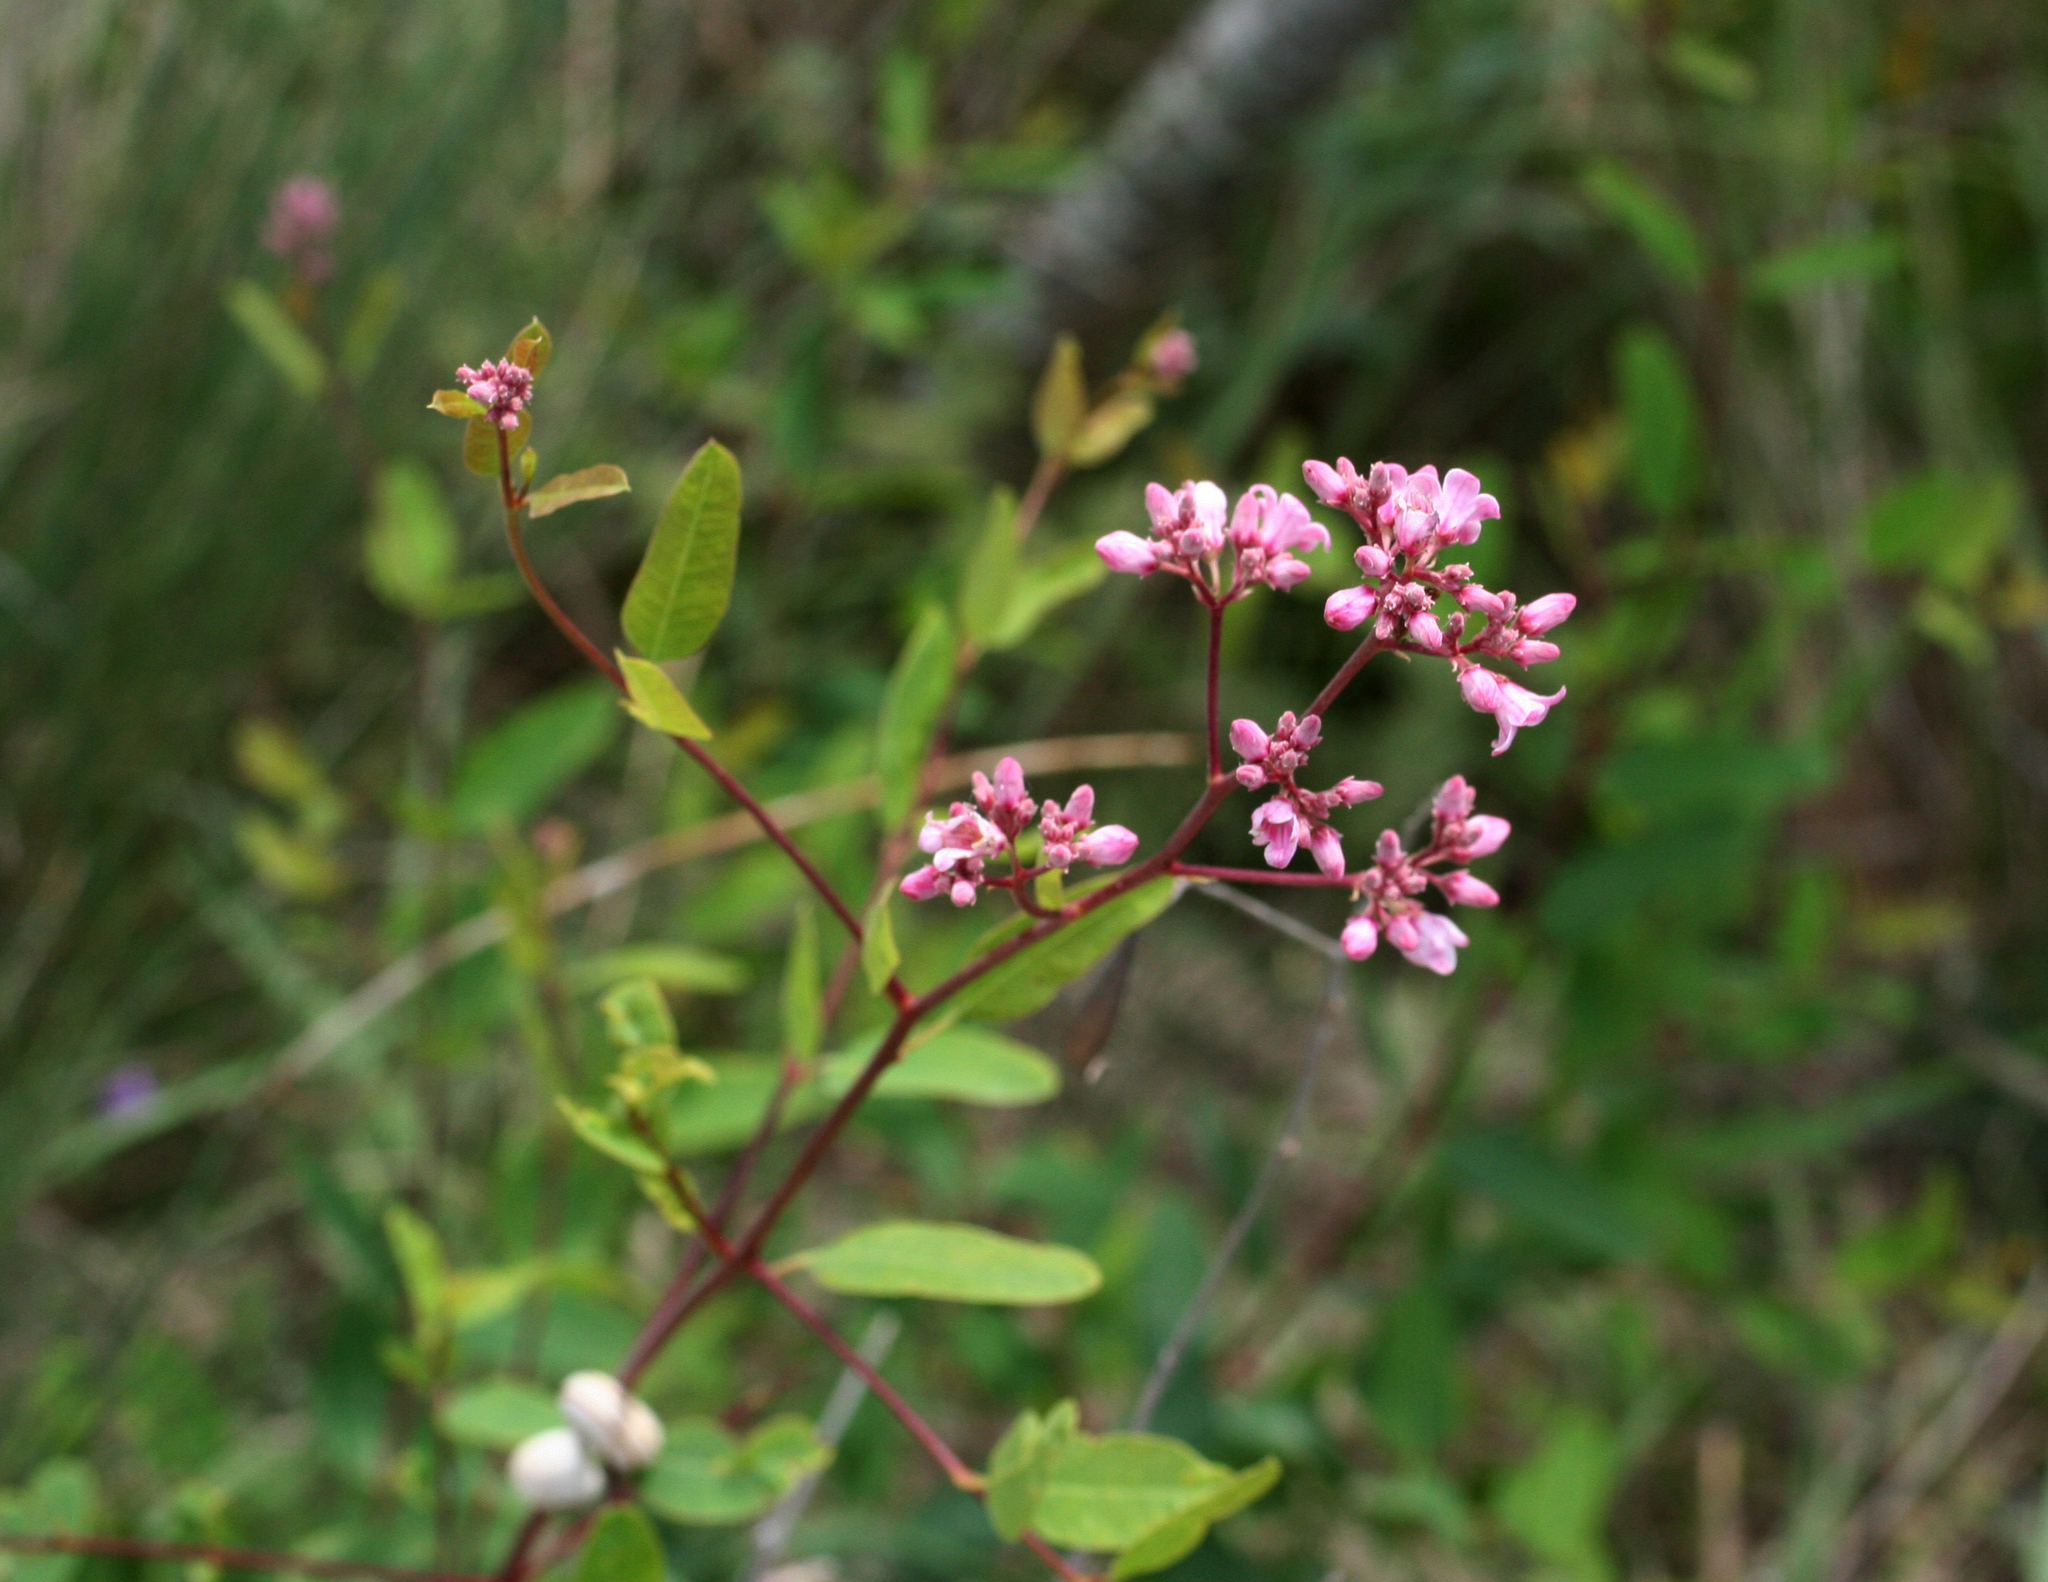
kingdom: Plantae
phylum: Tracheophyta
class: Magnoliopsida
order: Gentianales
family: Apocynaceae
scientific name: Apocynaceae
